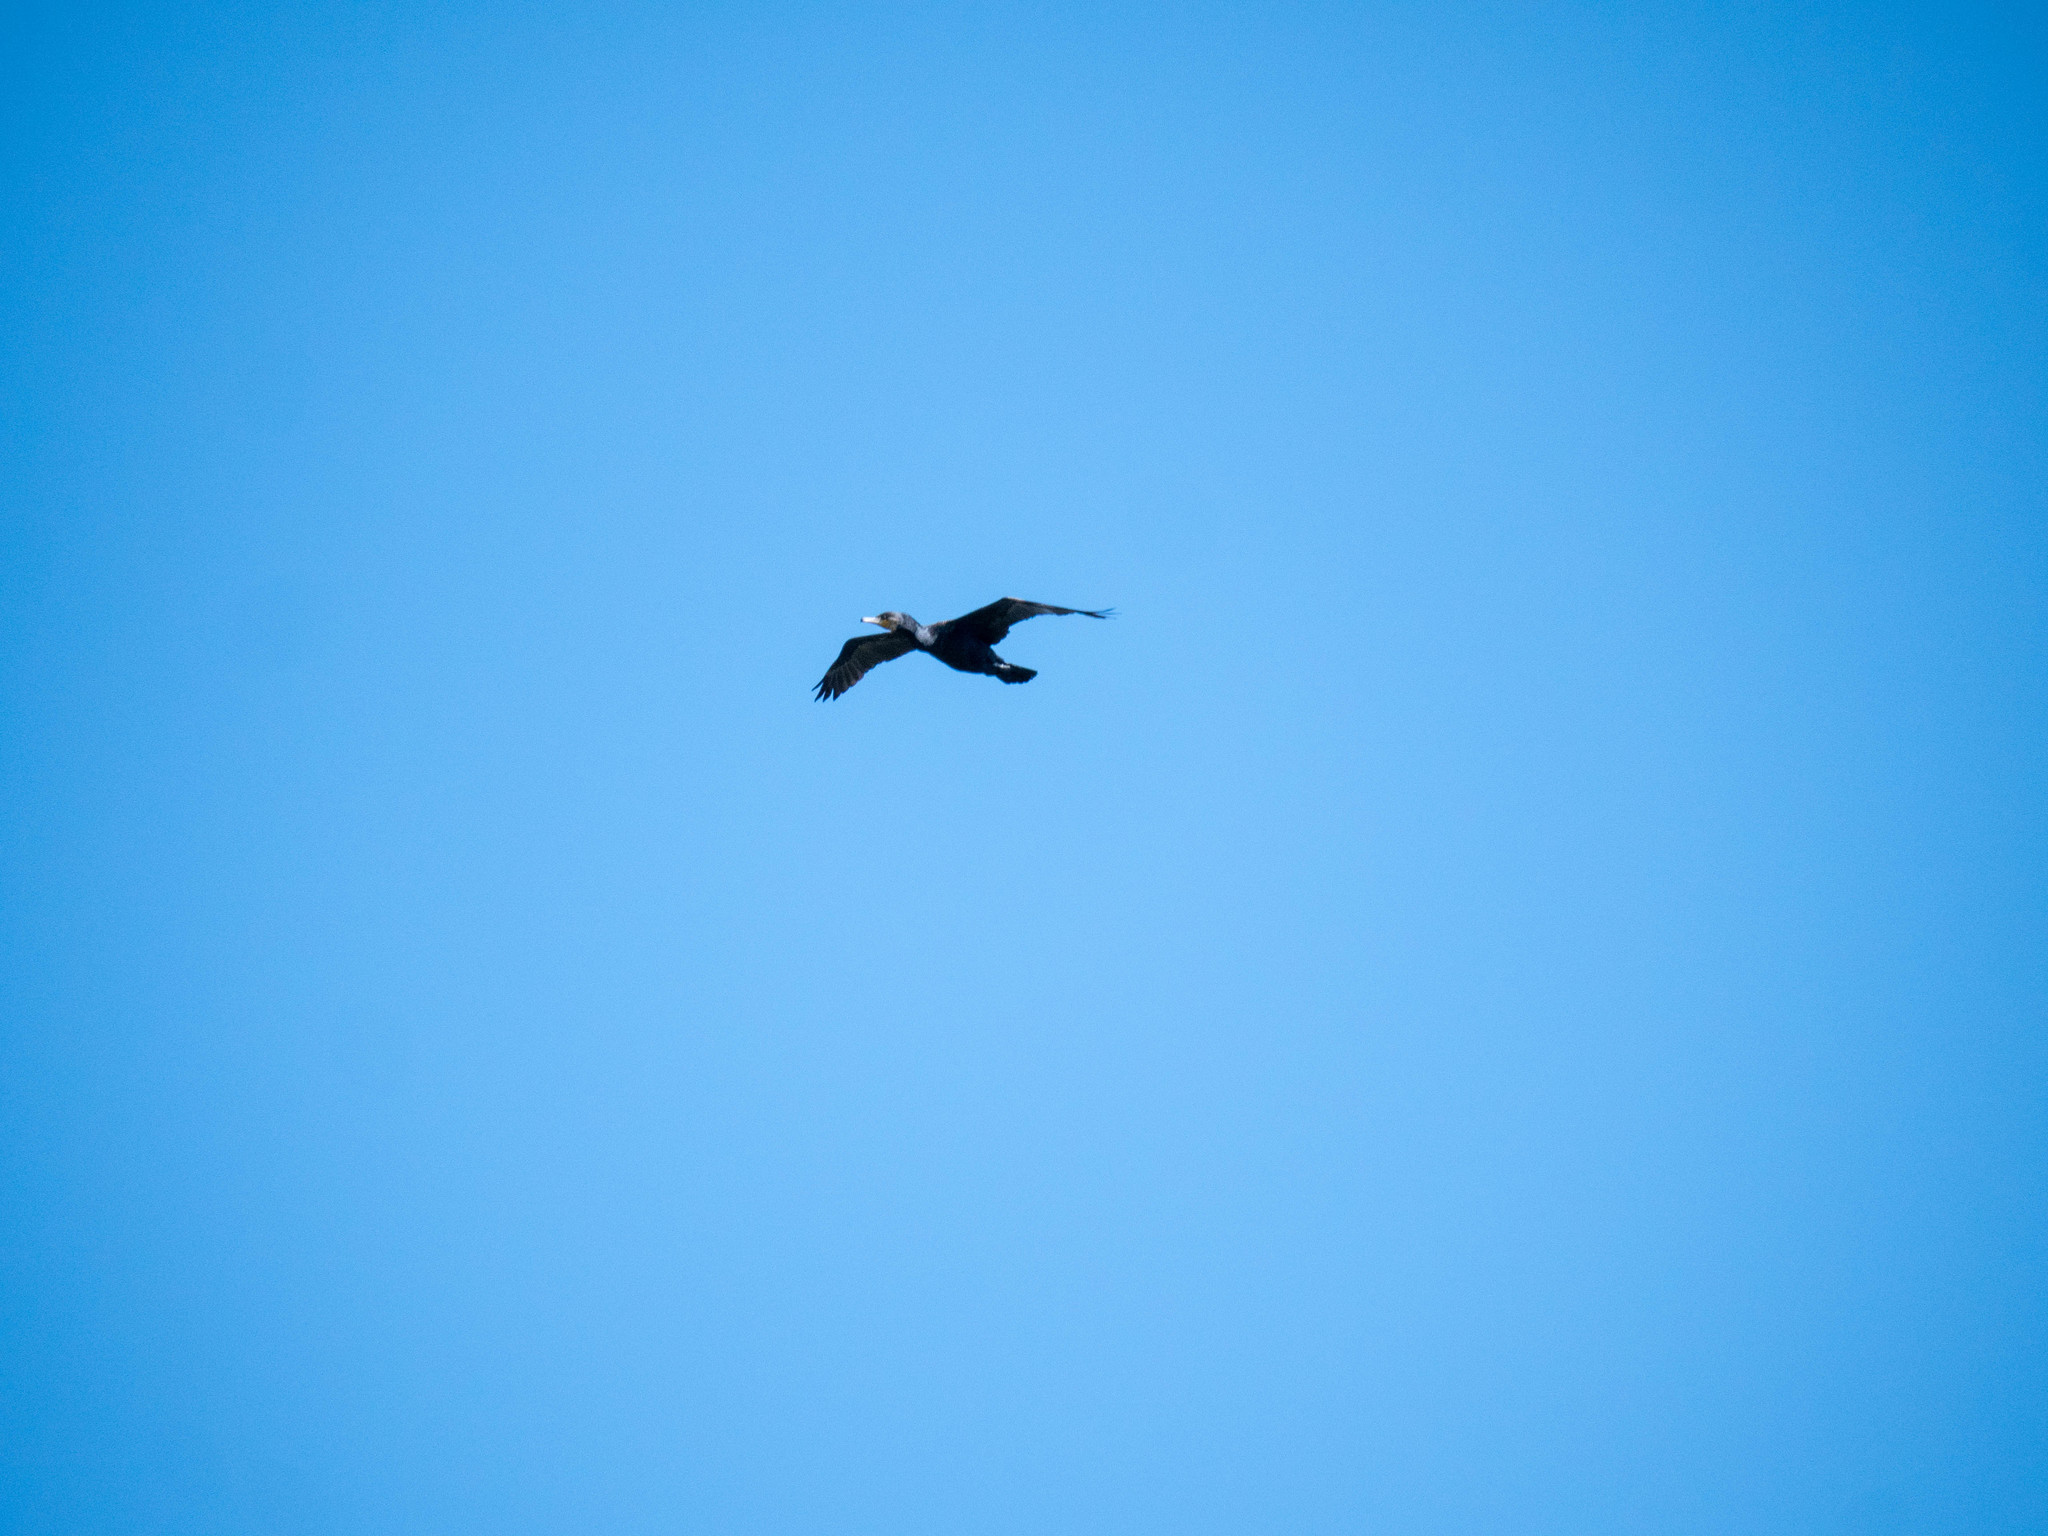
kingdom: Animalia
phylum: Chordata
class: Aves
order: Suliformes
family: Phalacrocoracidae
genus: Phalacrocorax
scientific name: Phalacrocorax carbo
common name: Great cormorant
